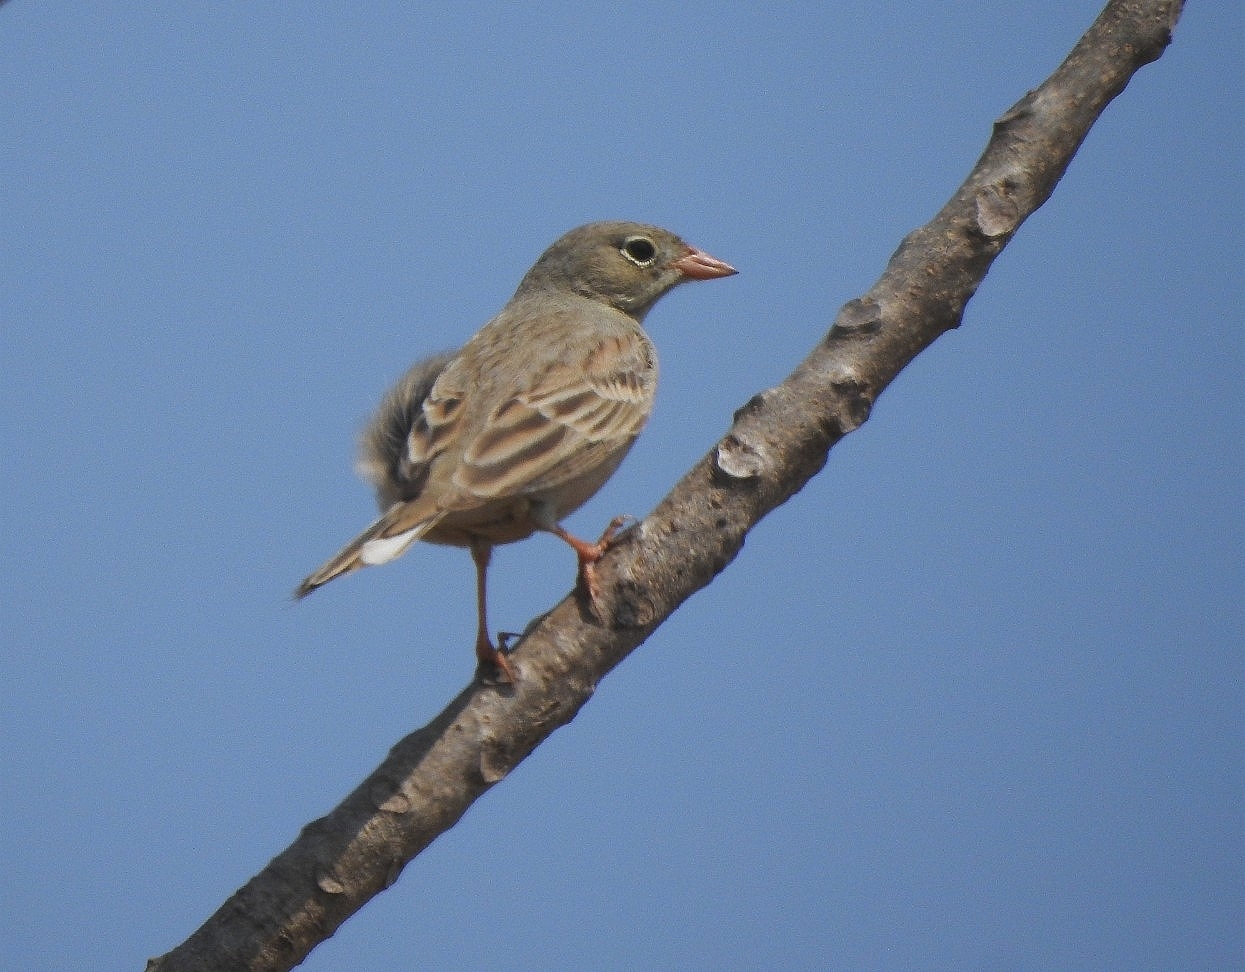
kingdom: Animalia
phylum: Chordata
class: Aves
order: Passeriformes
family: Emberizidae
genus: Emberiza
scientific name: Emberiza buchanani
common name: Grey-necked bunting
